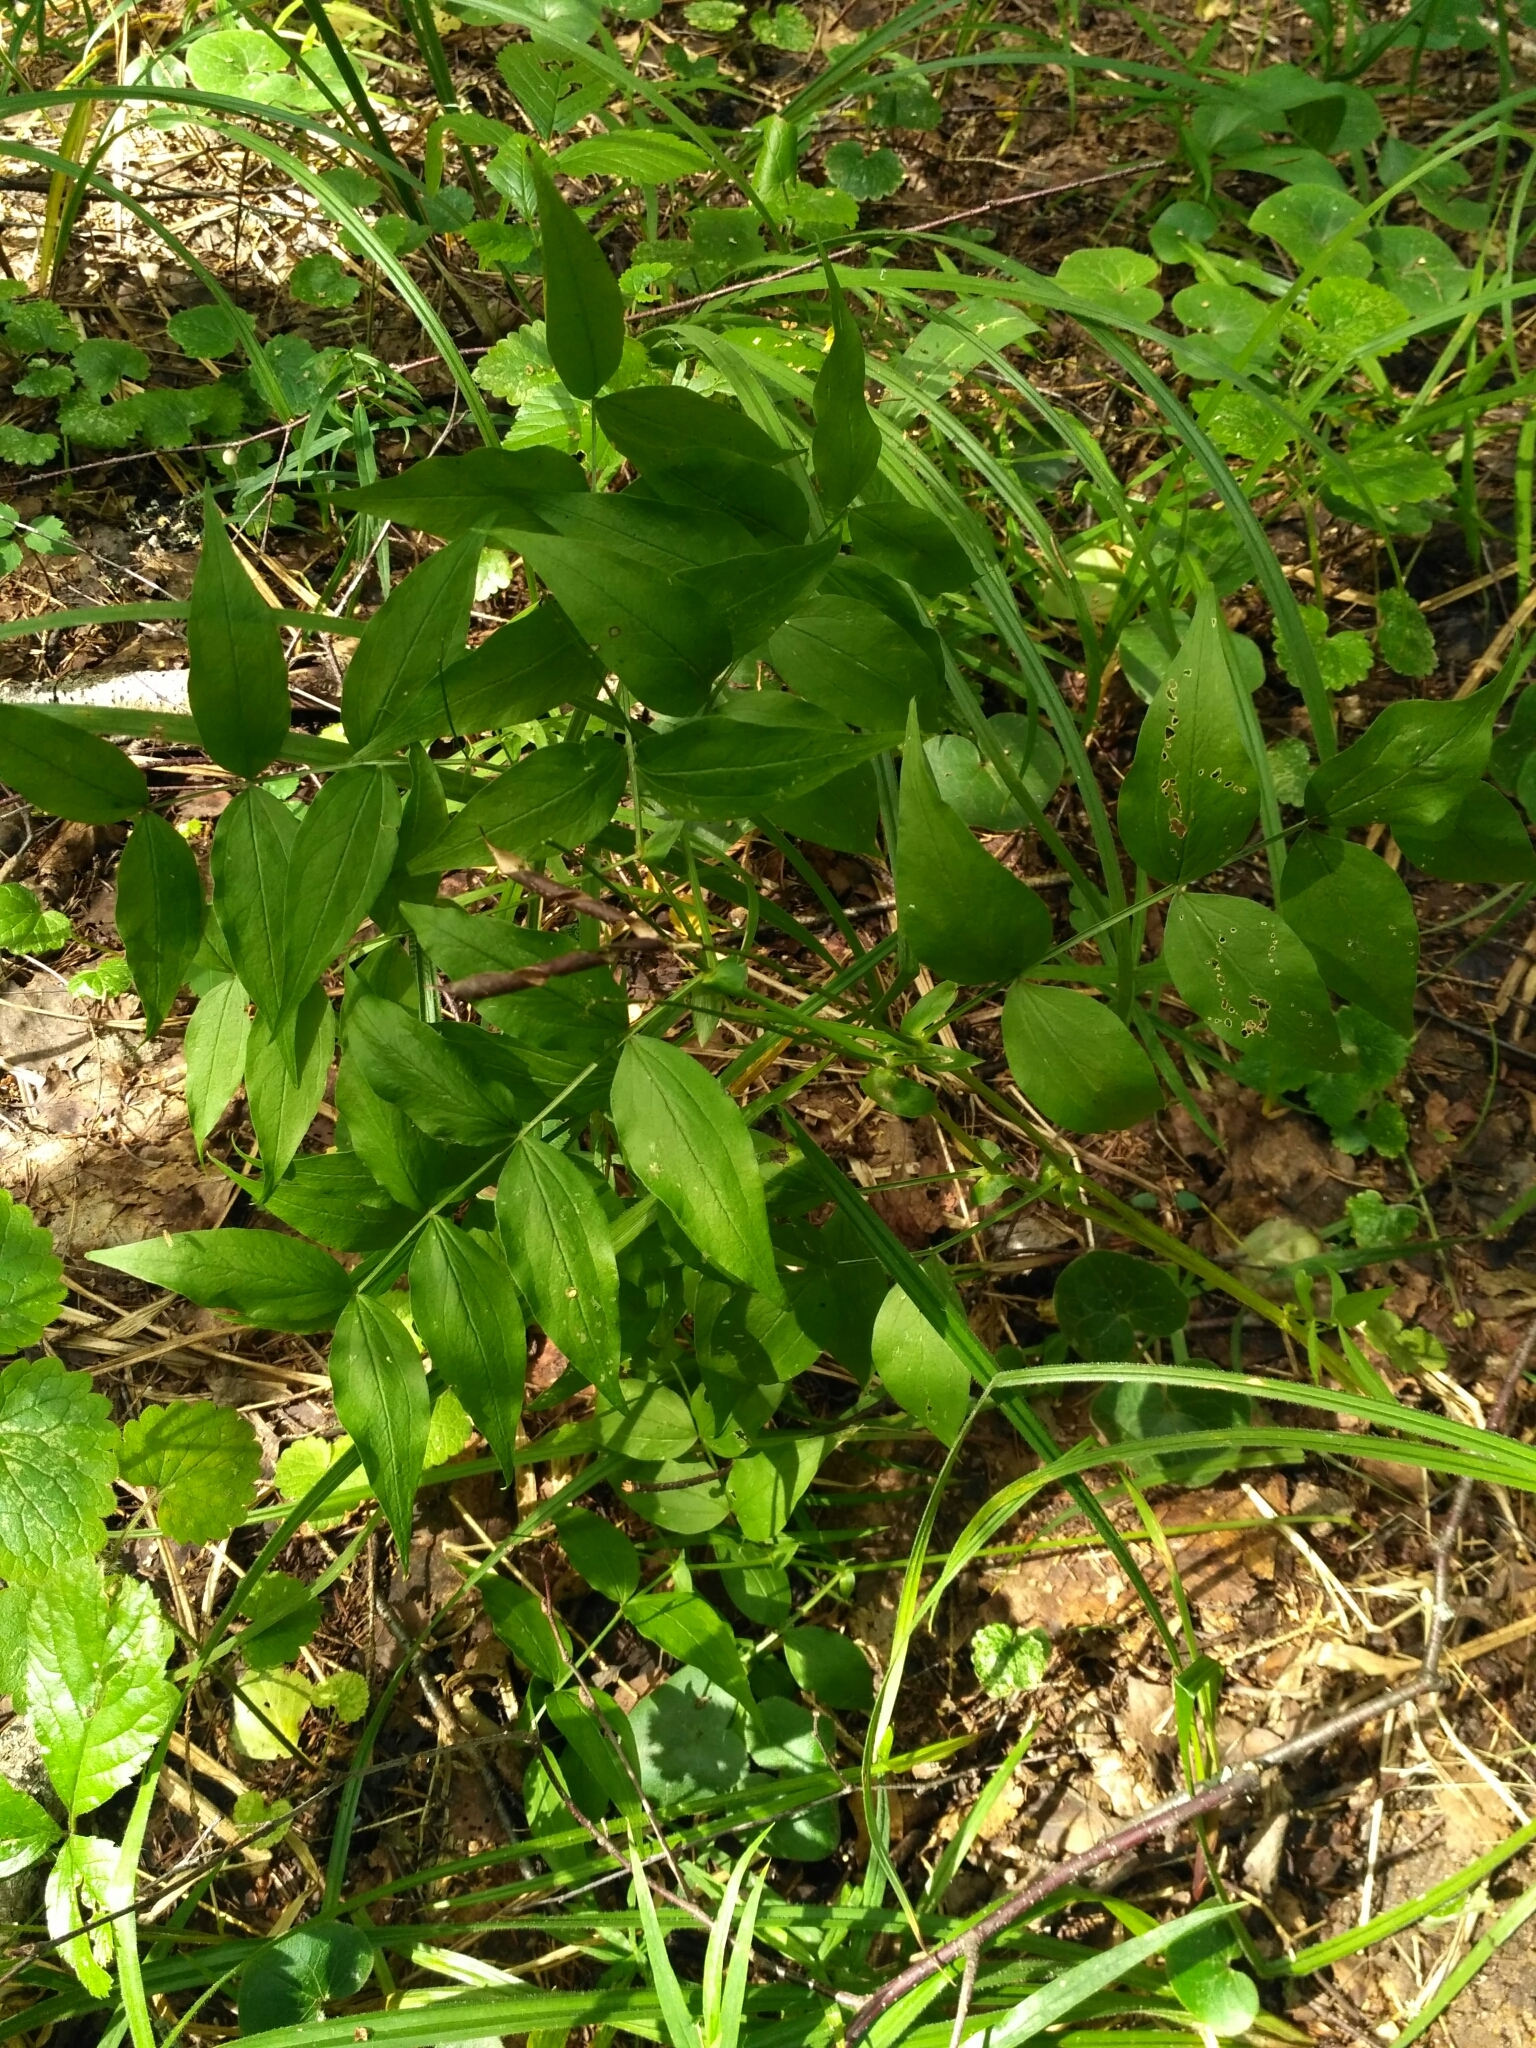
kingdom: Plantae
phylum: Tracheophyta
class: Magnoliopsida
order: Fabales
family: Fabaceae
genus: Lathyrus
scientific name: Lathyrus vernus
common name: Spring pea
